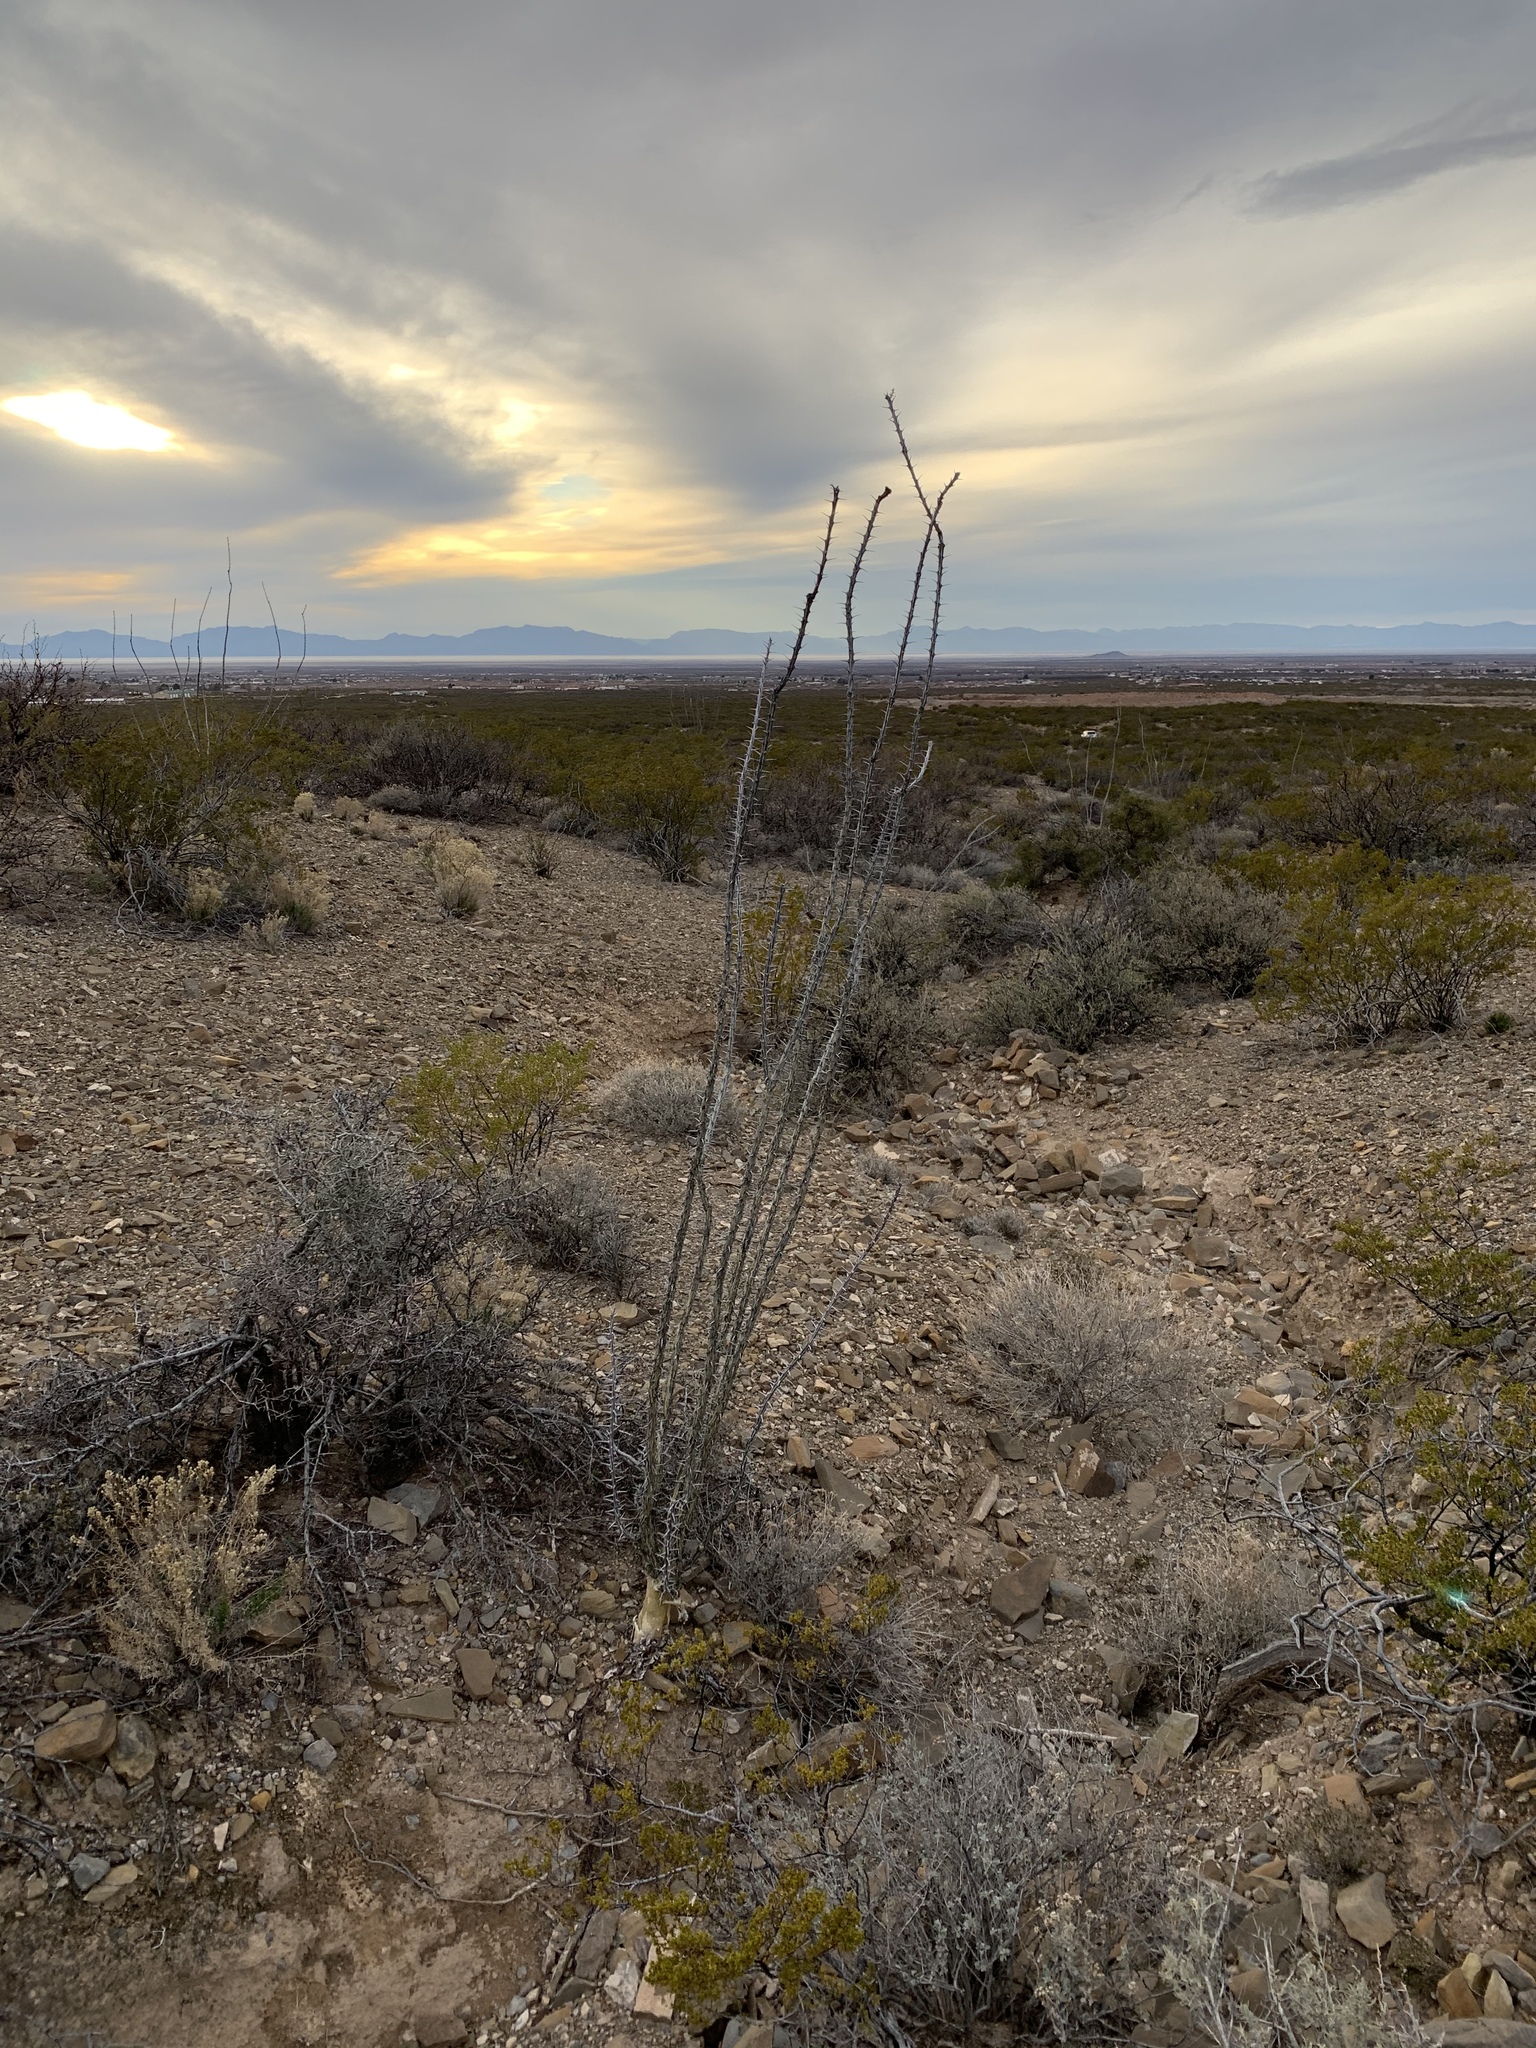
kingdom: Plantae
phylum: Tracheophyta
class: Magnoliopsida
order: Ericales
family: Fouquieriaceae
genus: Fouquieria
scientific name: Fouquieria splendens
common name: Vine-cactus
